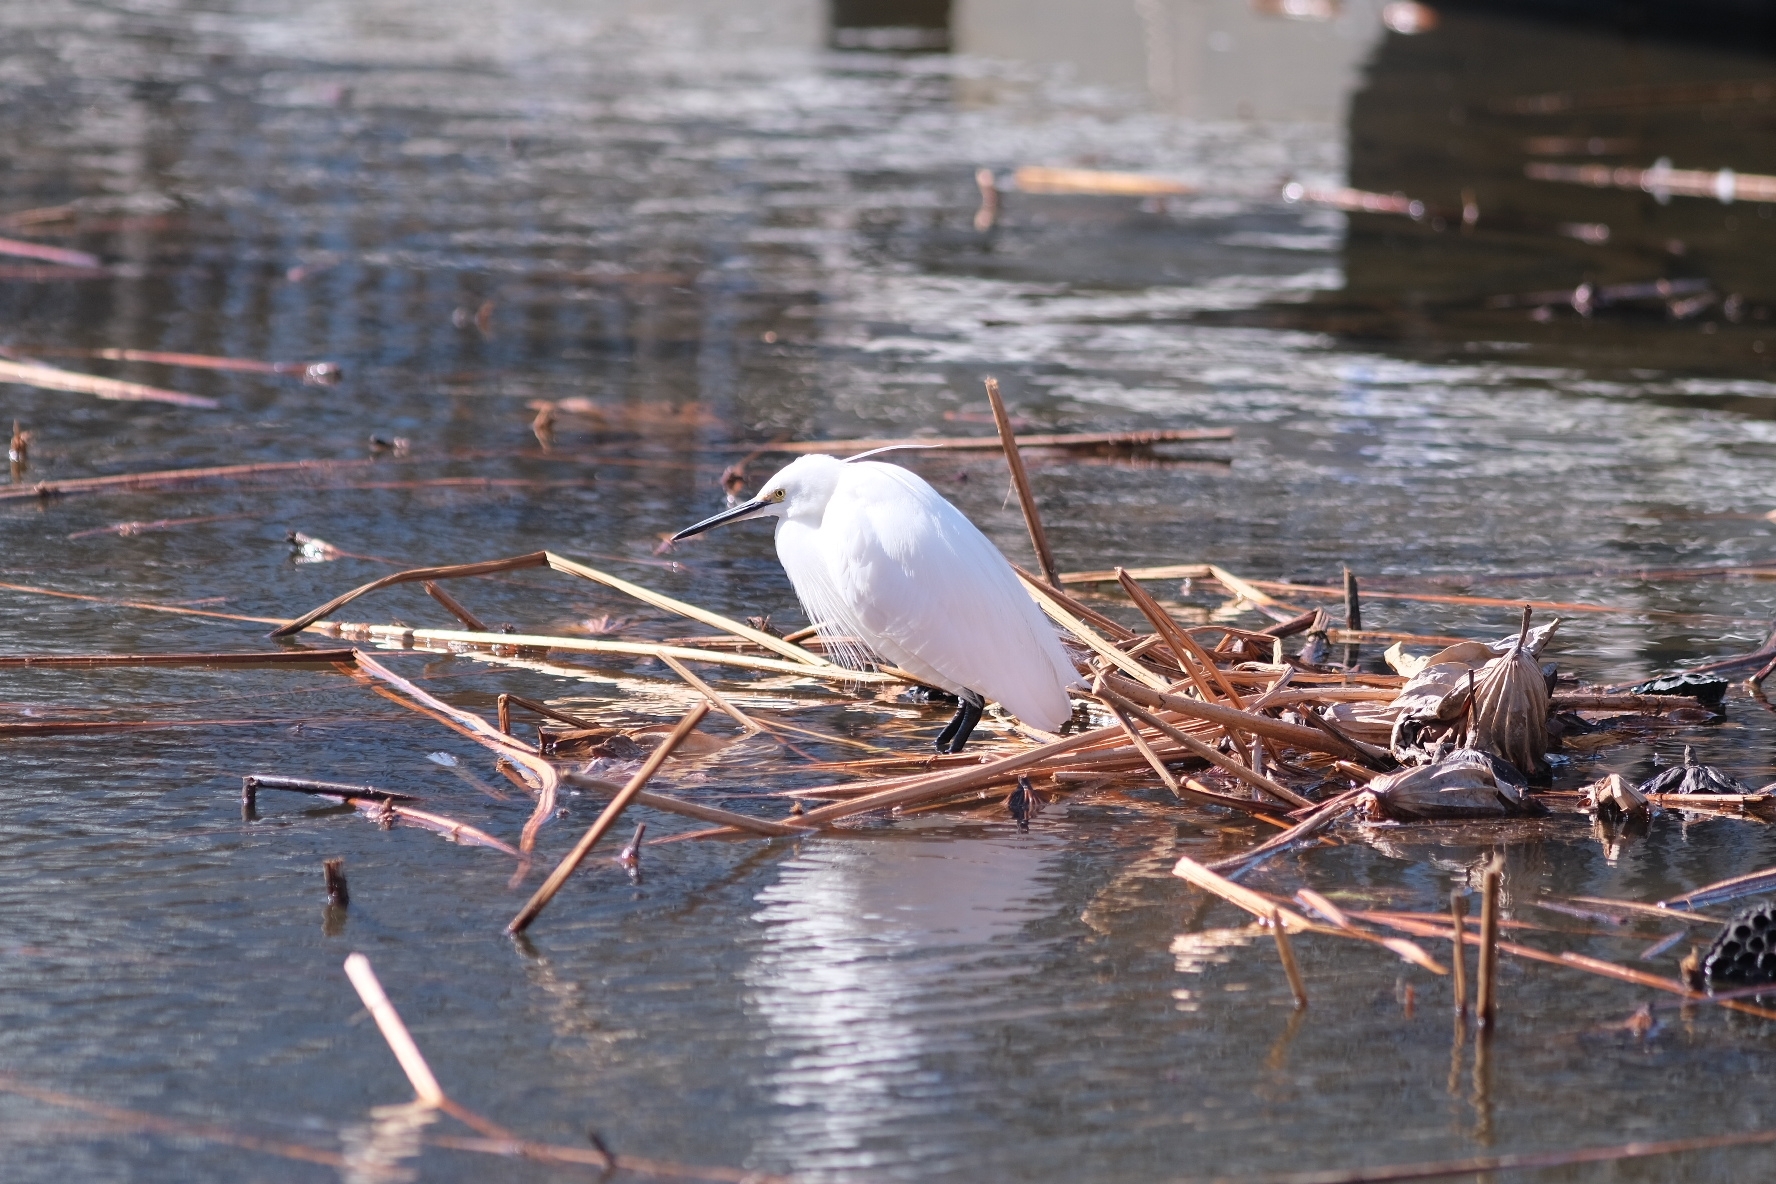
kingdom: Animalia
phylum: Chordata
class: Aves
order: Pelecaniformes
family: Ardeidae
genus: Egretta
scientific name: Egretta garzetta
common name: Little egret
